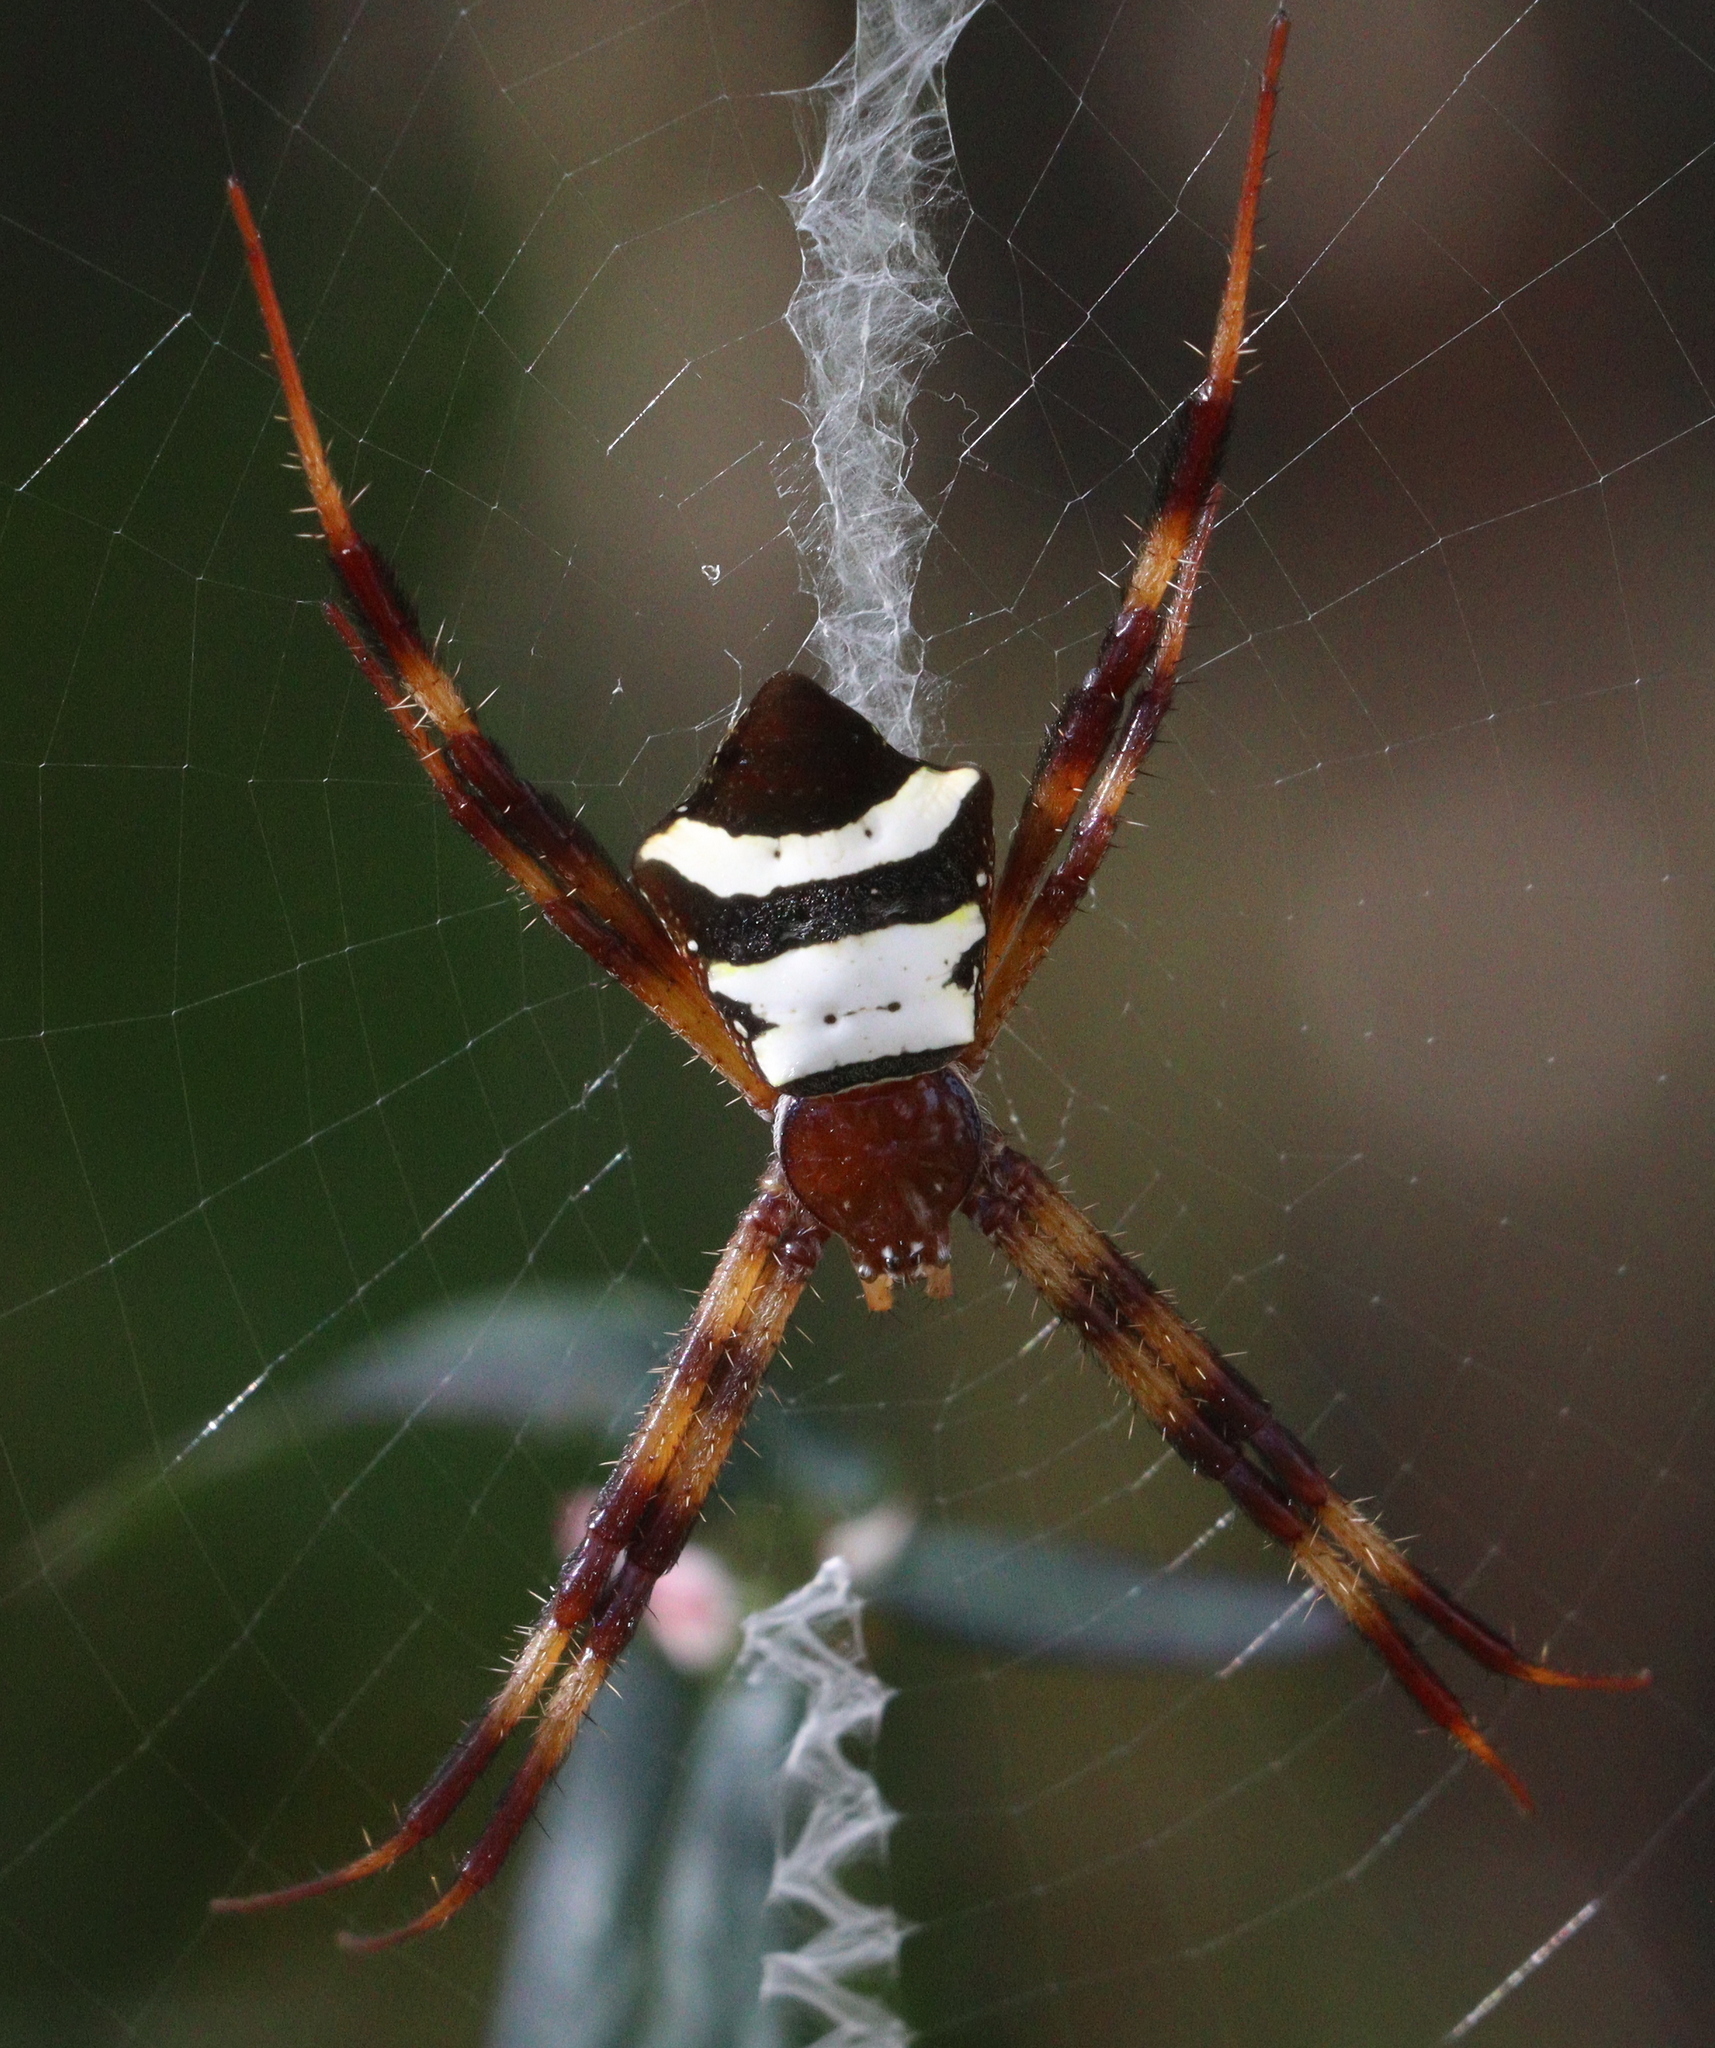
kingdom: Animalia
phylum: Arthropoda
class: Arachnida
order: Araneae
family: Araneidae
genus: Argiope
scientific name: Argiope reinwardti
